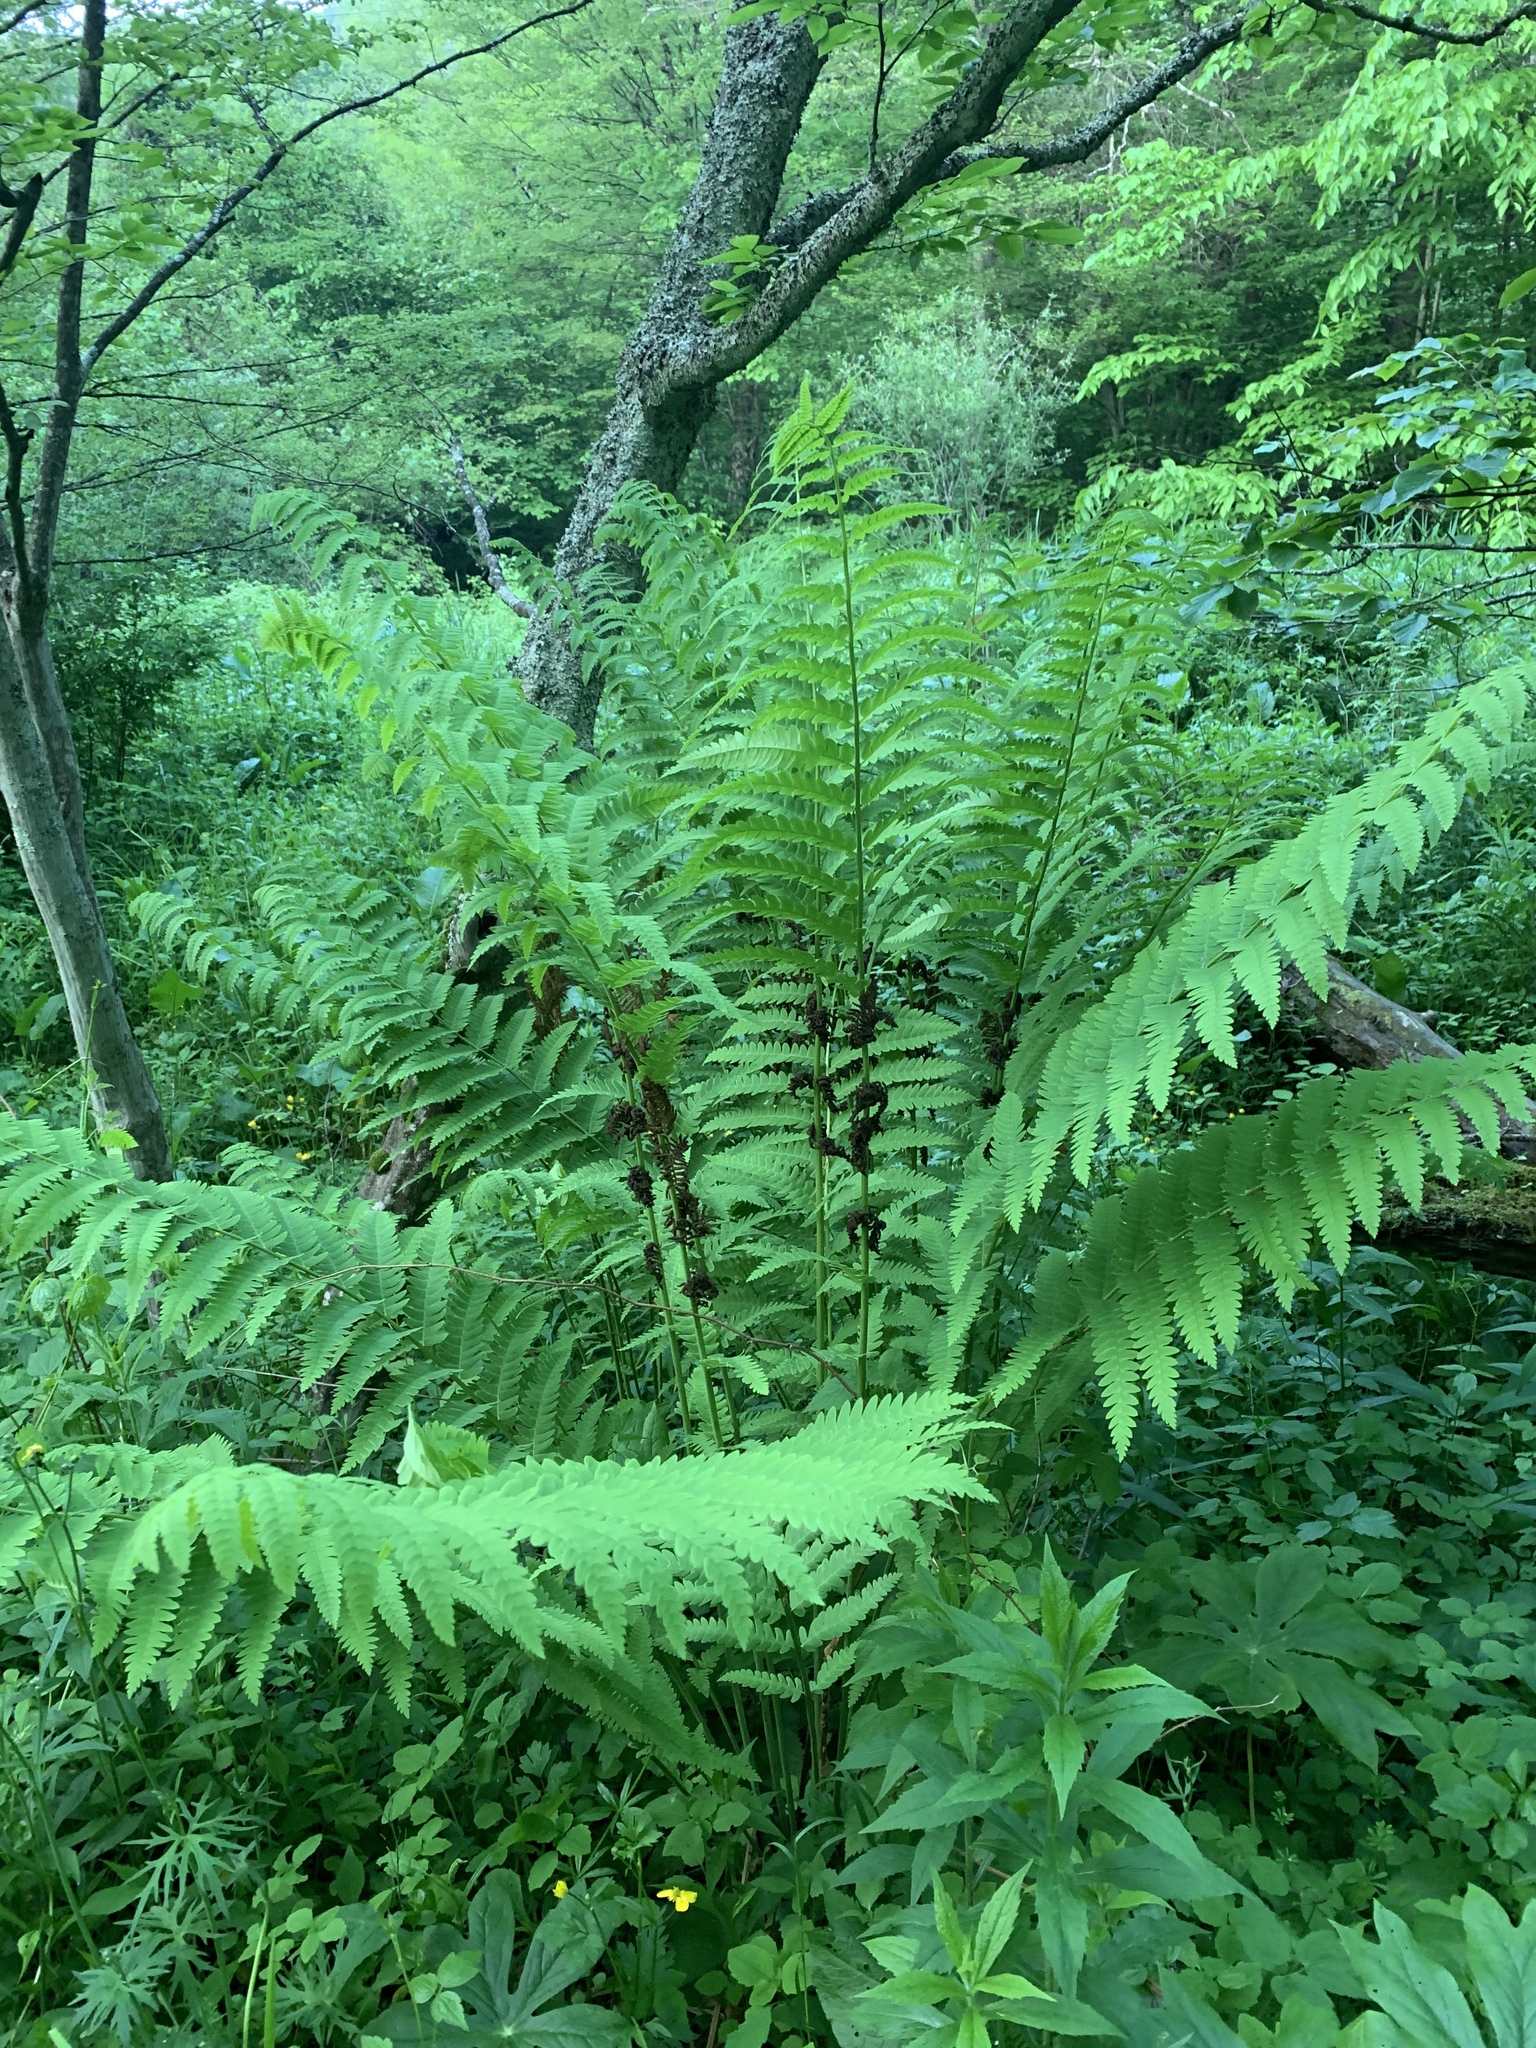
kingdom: Plantae
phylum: Tracheophyta
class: Polypodiopsida
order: Osmundales
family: Osmundaceae
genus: Claytosmunda
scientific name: Claytosmunda claytoniana
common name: Clayton's fern
